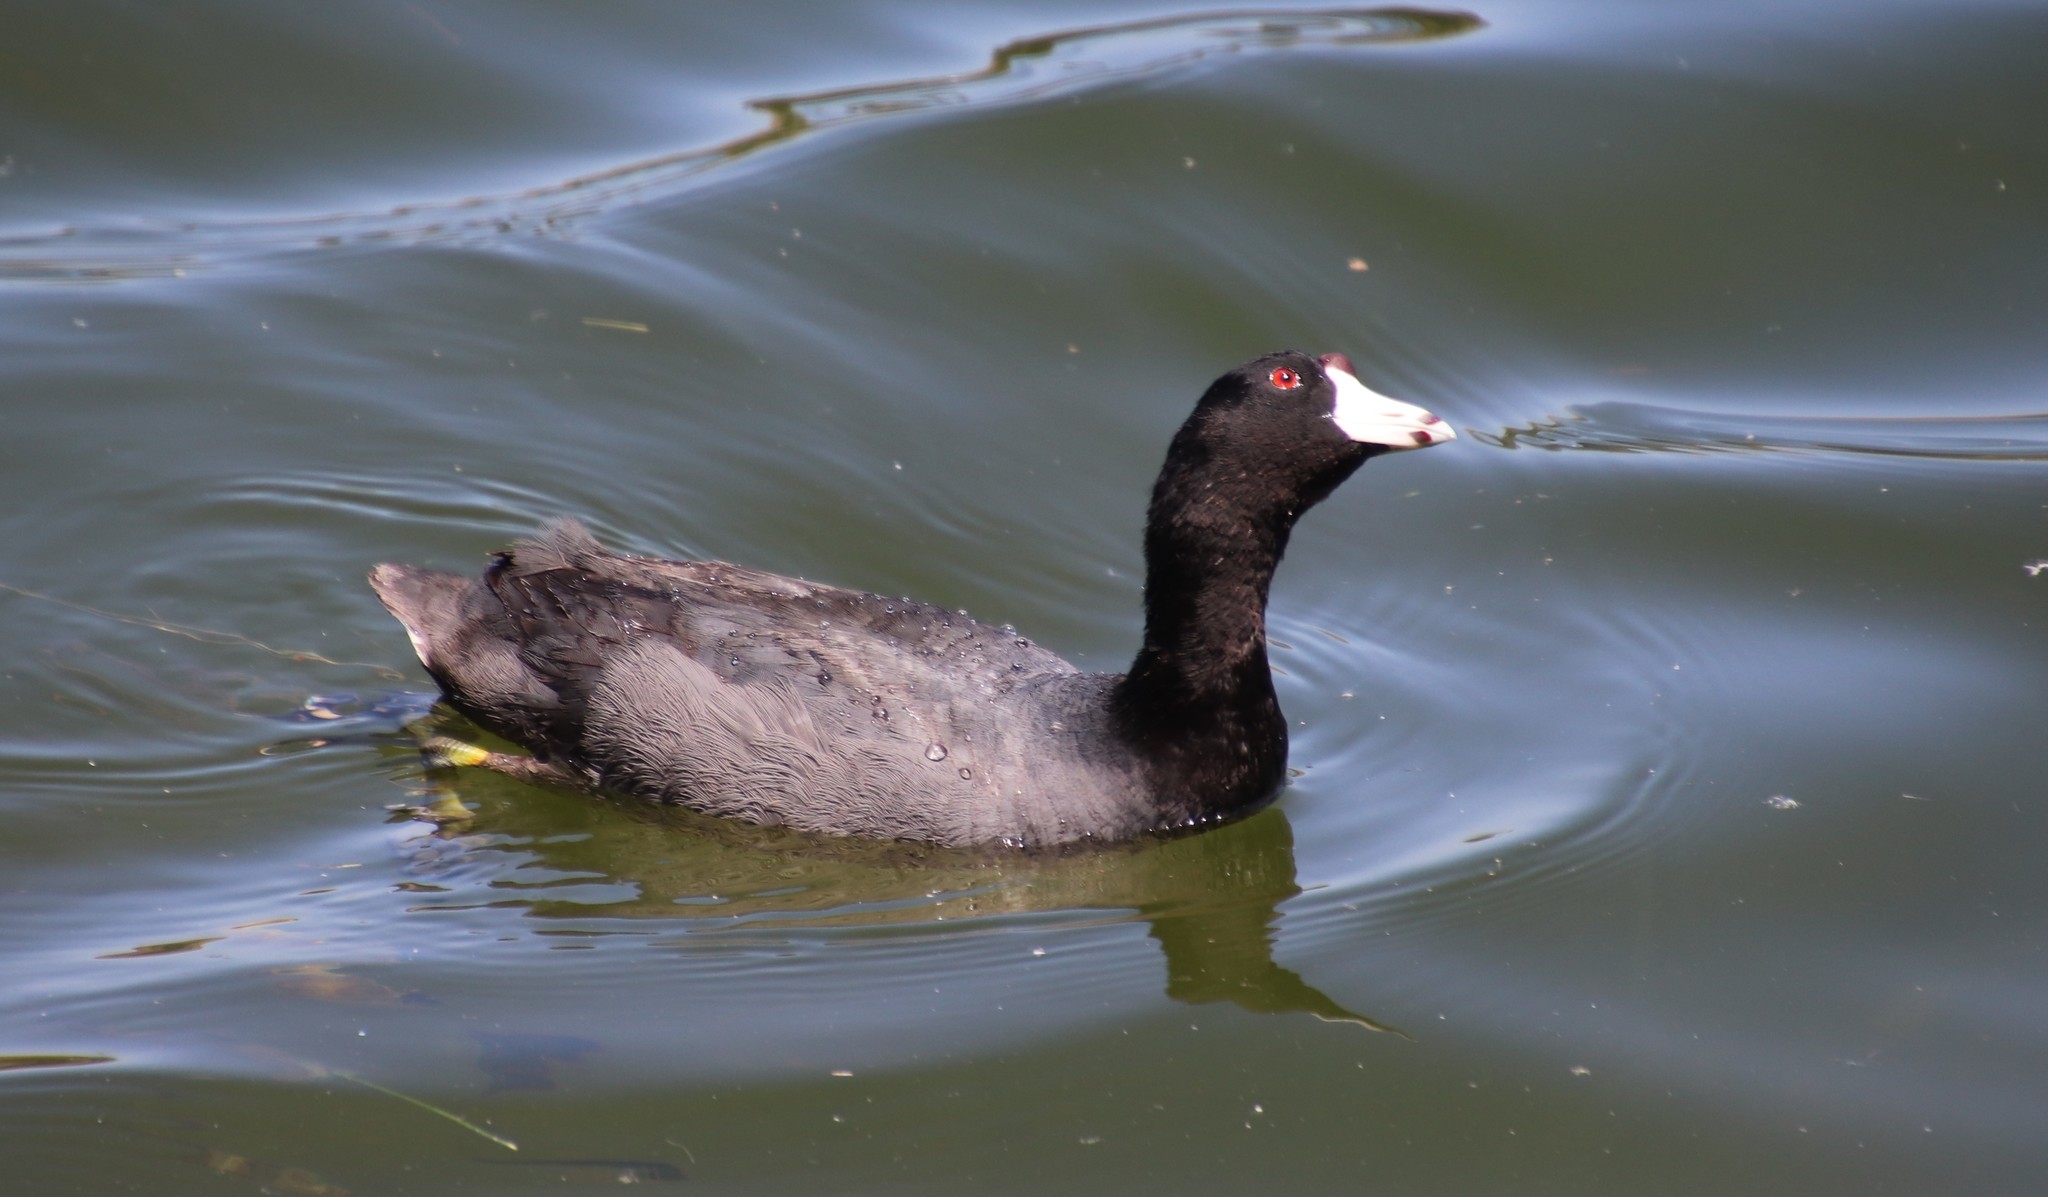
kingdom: Animalia
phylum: Chordata
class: Aves
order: Gruiformes
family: Rallidae
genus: Fulica
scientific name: Fulica americana
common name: American coot
